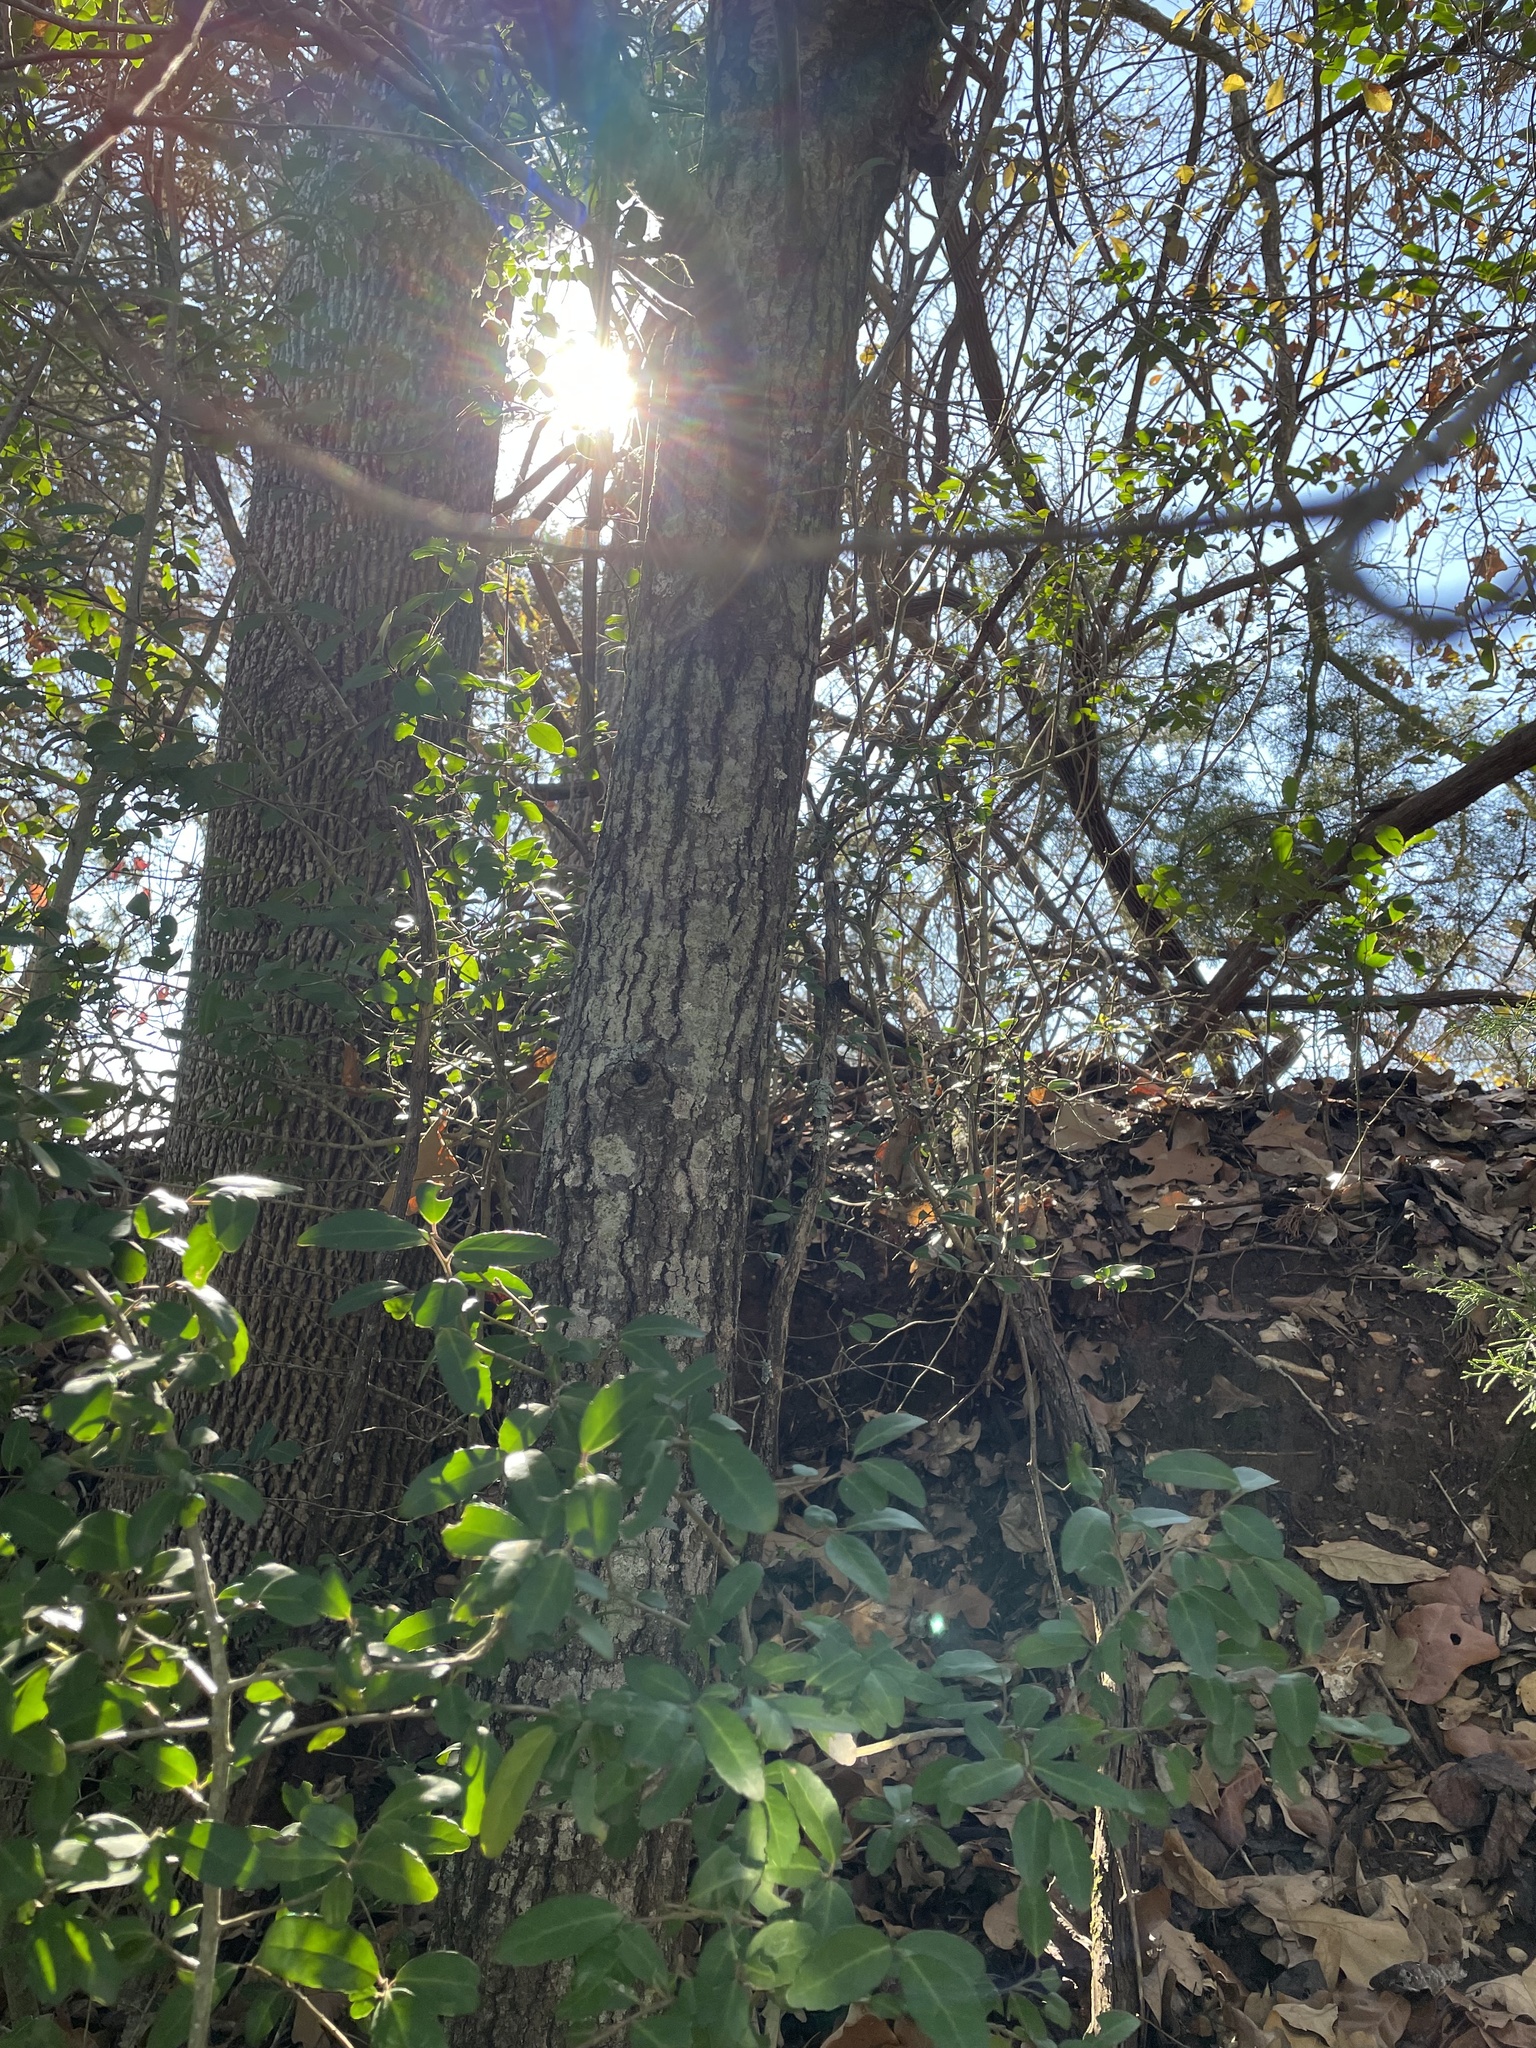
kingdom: Plantae
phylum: Tracheophyta
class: Magnoliopsida
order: Fagales
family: Fagaceae
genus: Quercus
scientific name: Quercus nigra
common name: Water oak
